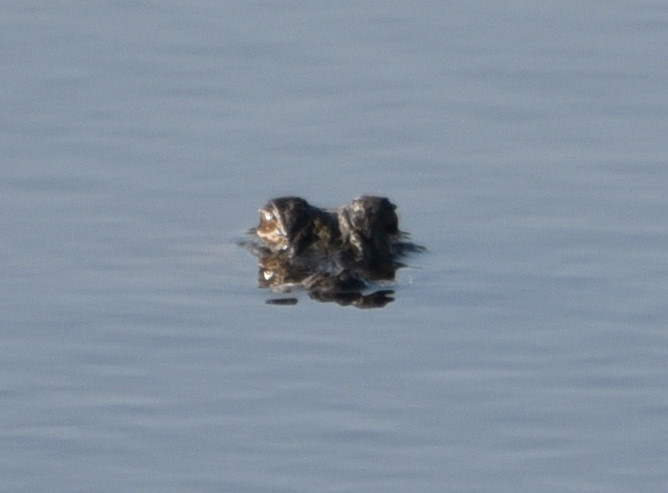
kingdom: Animalia
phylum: Chordata
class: Crocodylia
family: Alligatoridae
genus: Alligator
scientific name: Alligator mississippiensis
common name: American alligator
